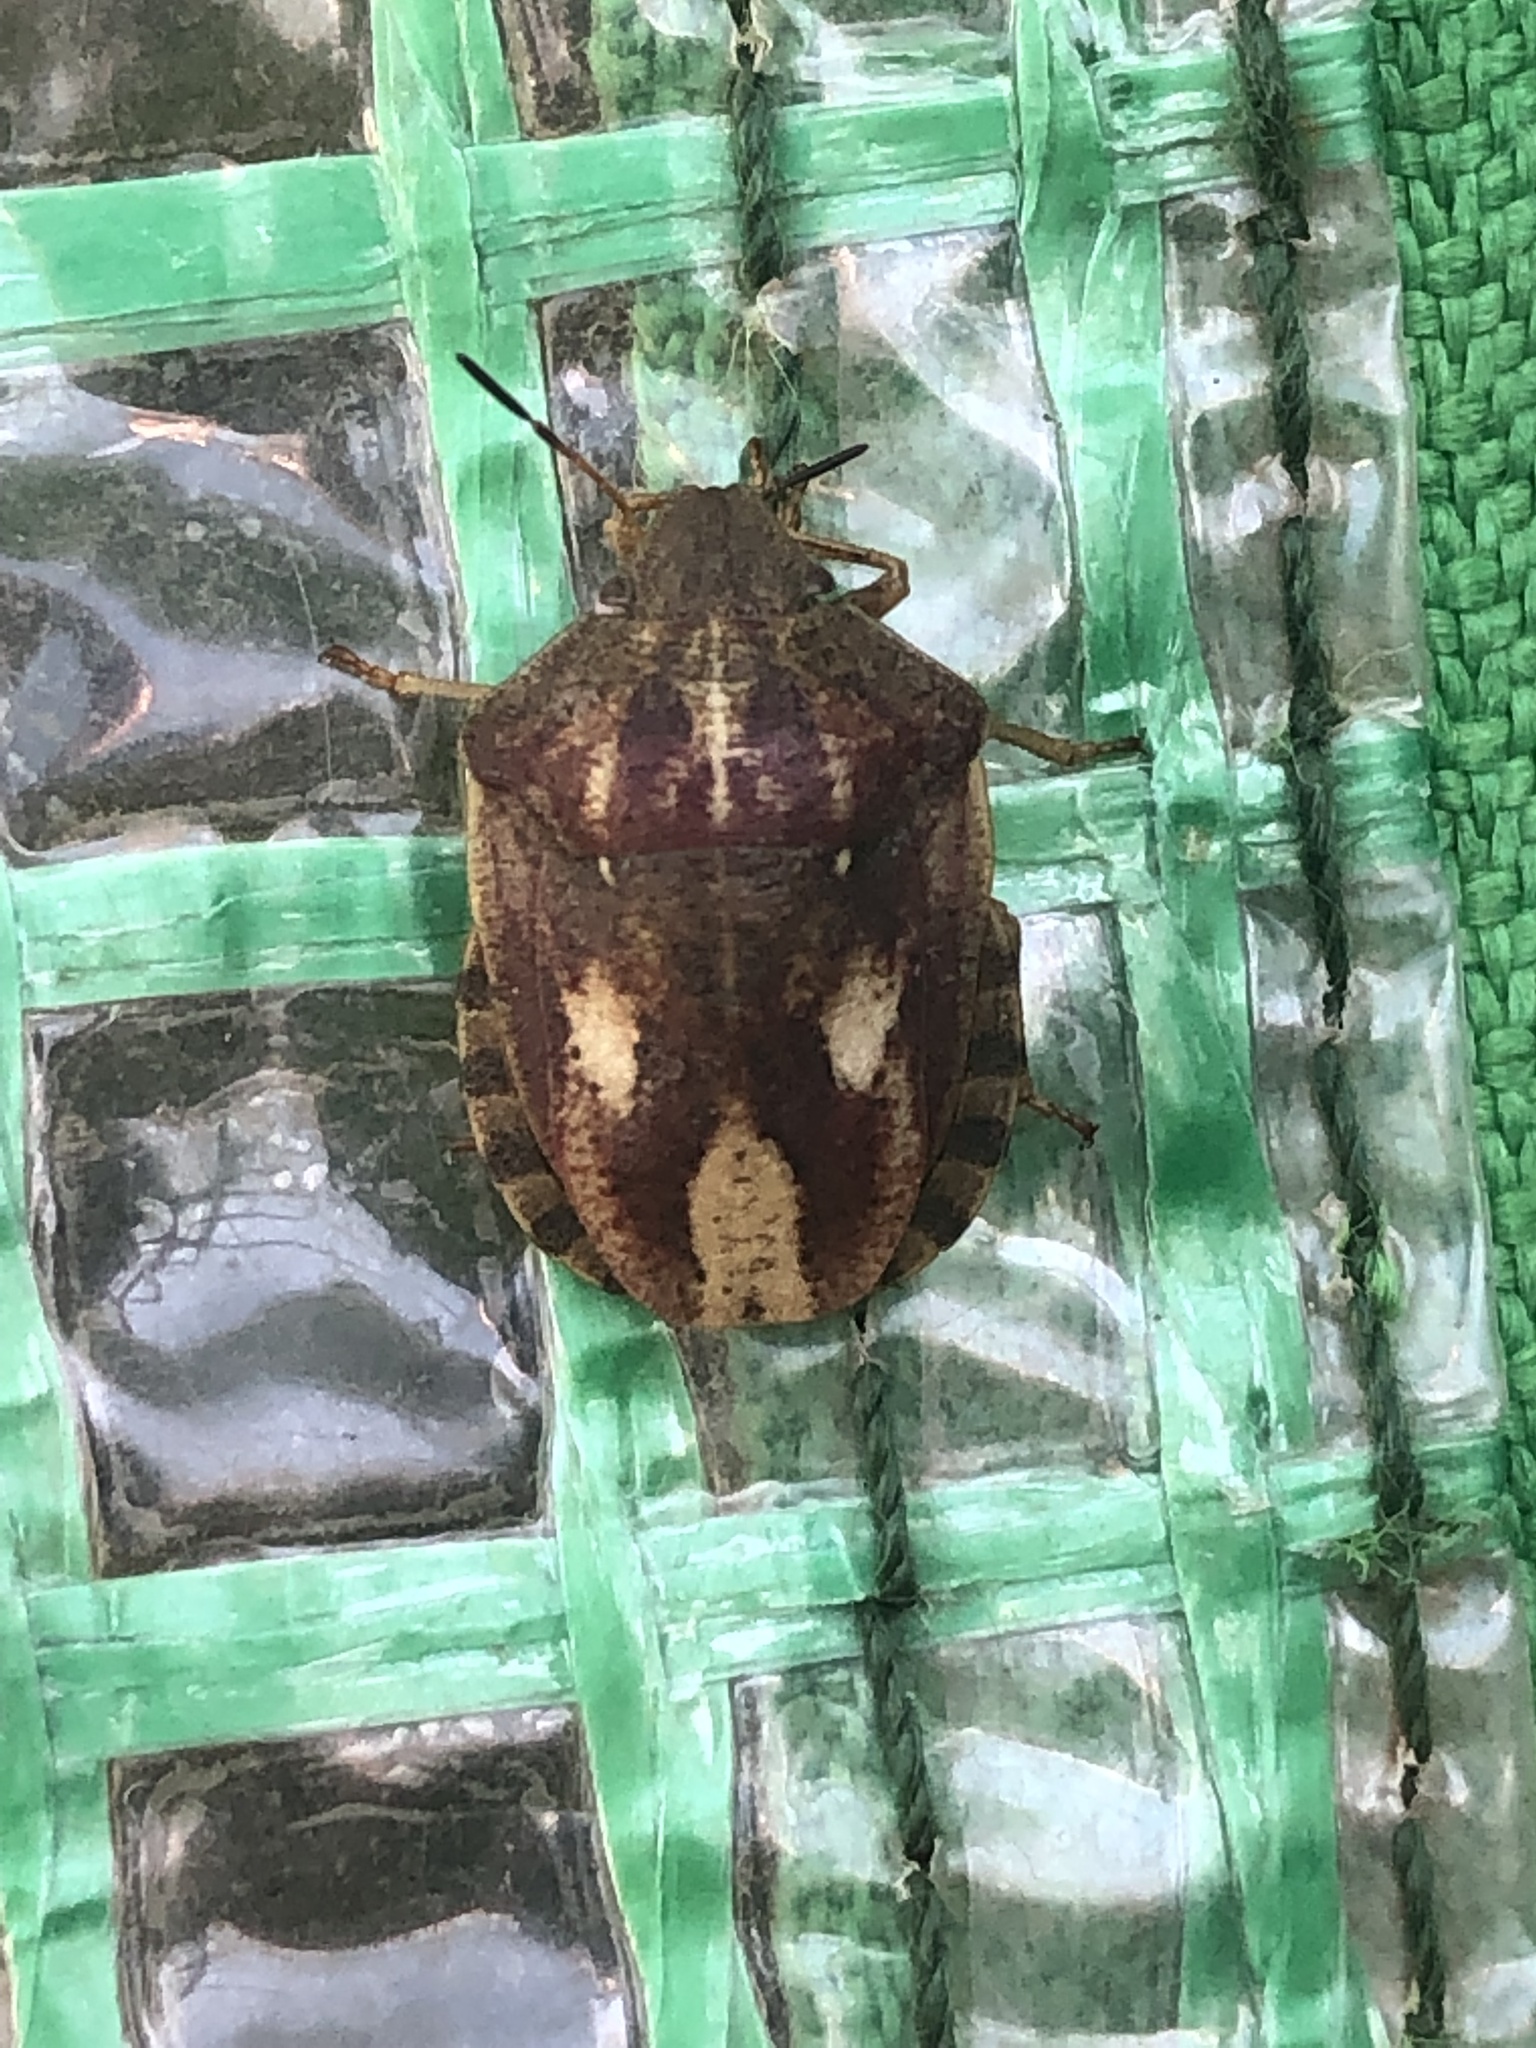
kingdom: Animalia
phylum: Arthropoda
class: Insecta
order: Hemiptera
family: Scutelleridae
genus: Eurygaster
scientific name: Eurygaster testudinaria
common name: Tortoise bug
